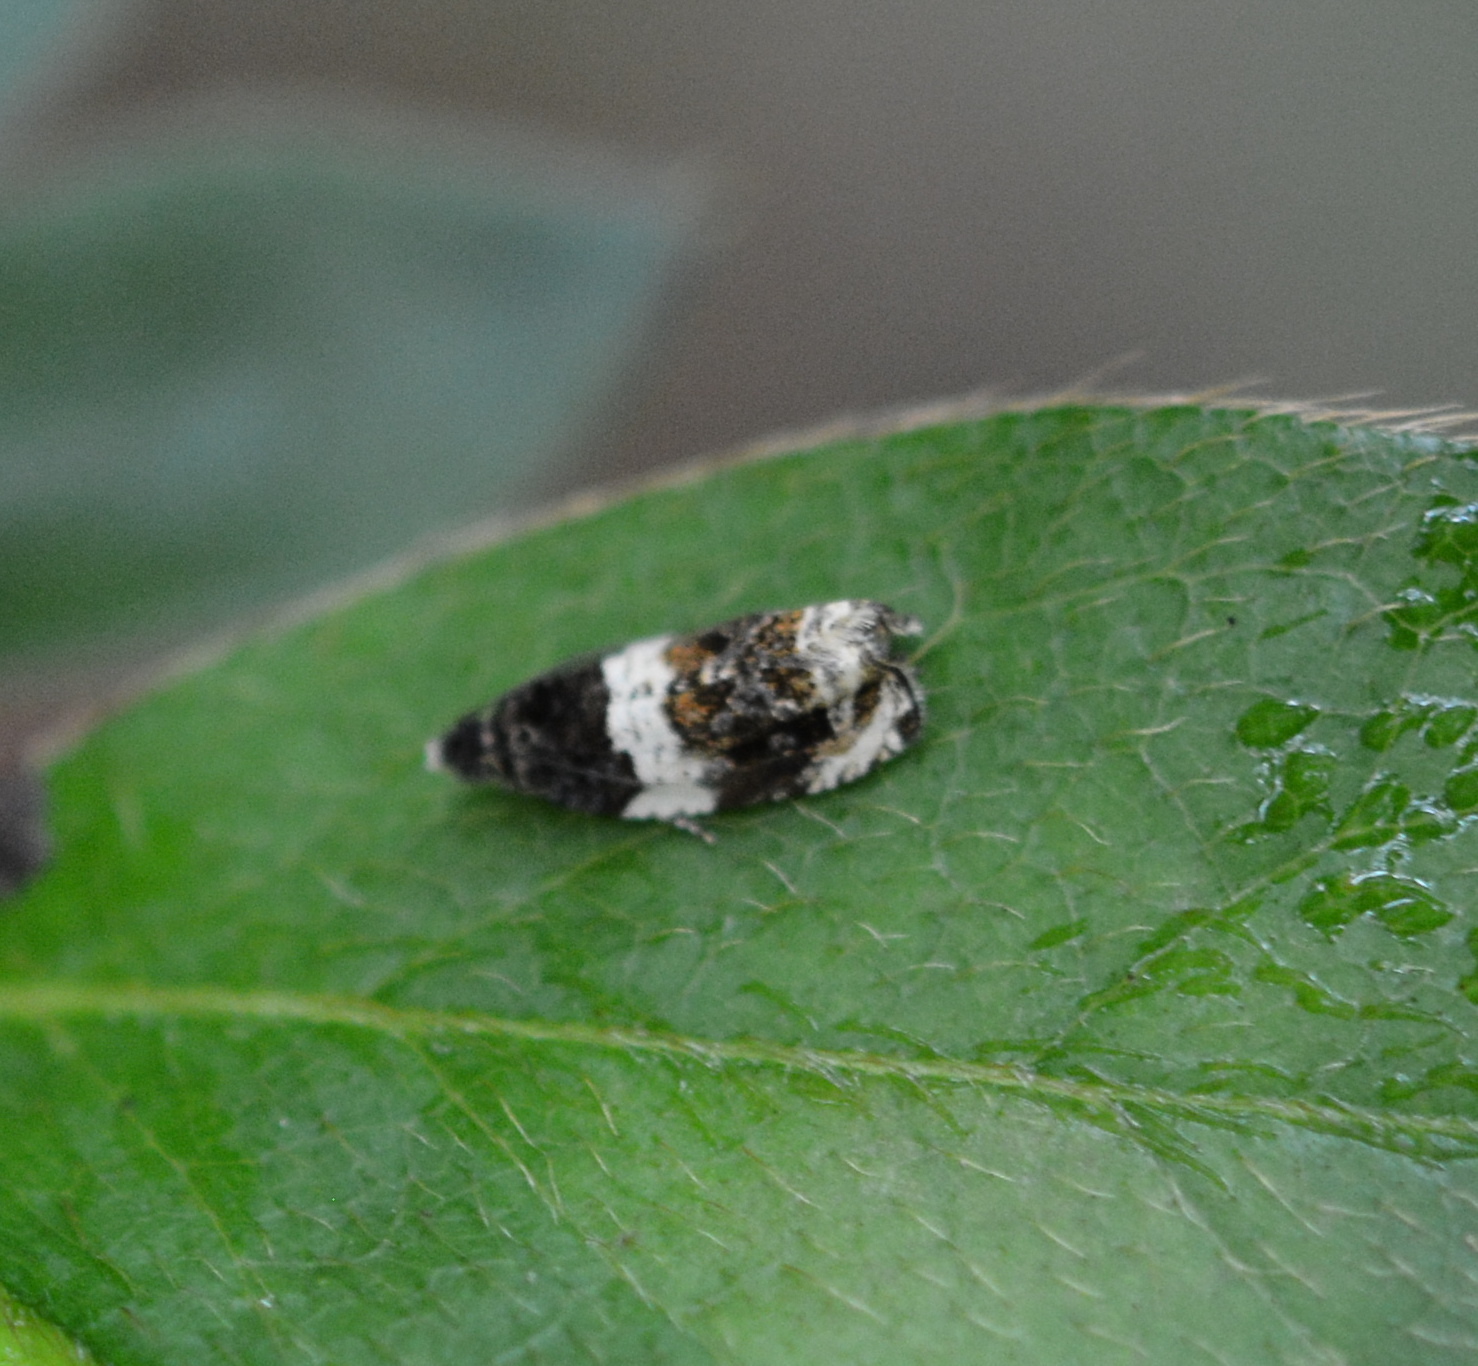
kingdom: Animalia
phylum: Arthropoda
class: Insecta
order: Lepidoptera
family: Tortricidae
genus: Olethreutes
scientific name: Olethreutes fasciatana
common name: Banded olethreutes moth
